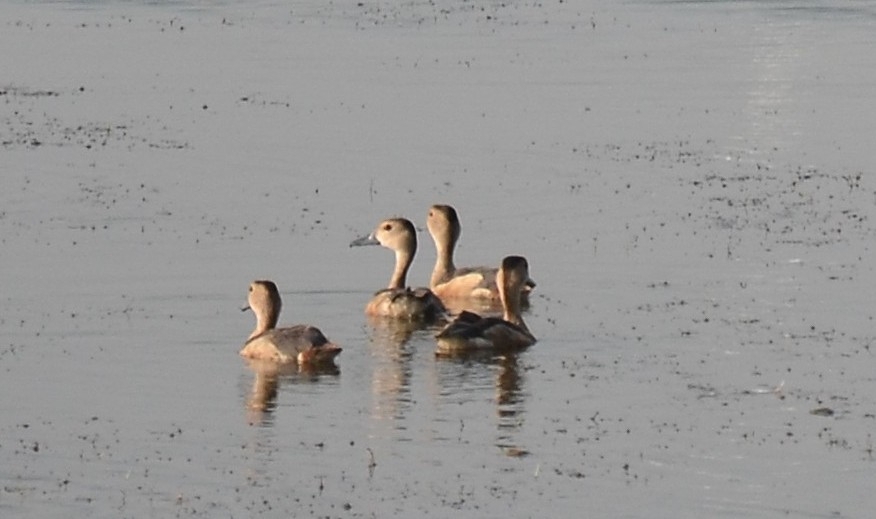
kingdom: Animalia
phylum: Chordata
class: Aves
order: Anseriformes
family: Anatidae
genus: Dendrocygna
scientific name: Dendrocygna javanica
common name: Lesser whistling-duck
